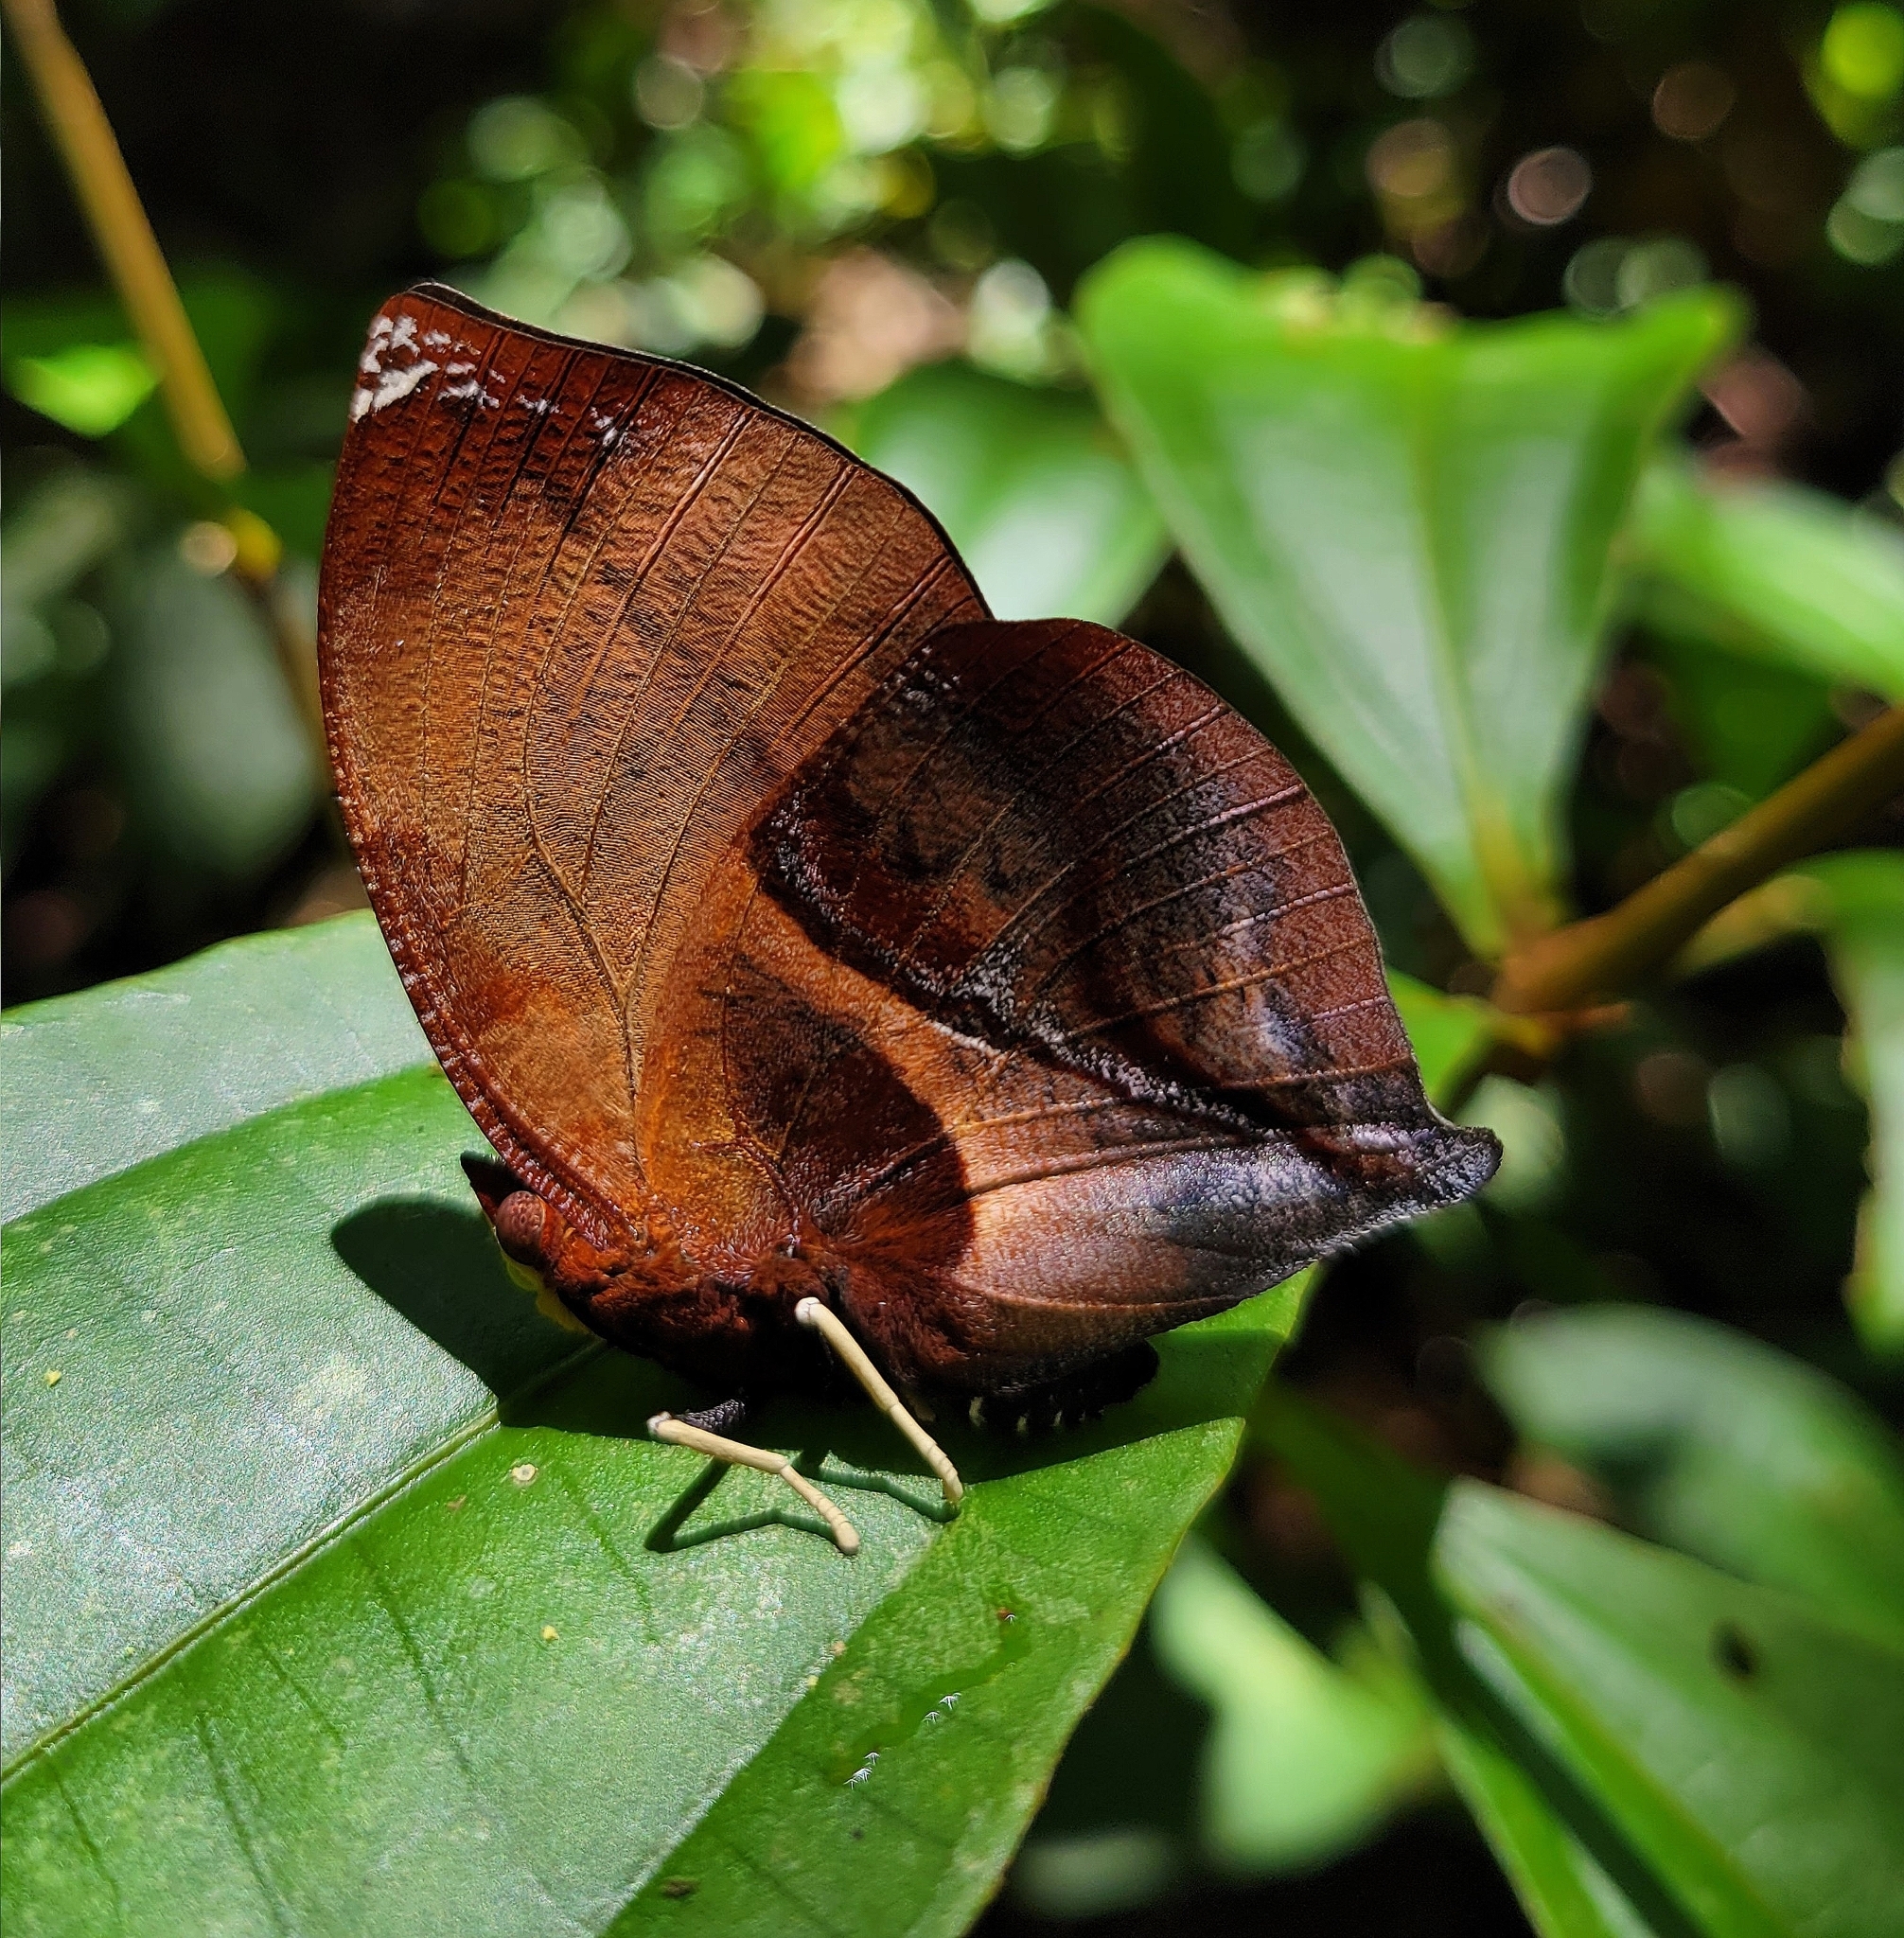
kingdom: Animalia
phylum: Arthropoda
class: Insecta
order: Lepidoptera
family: Nymphalidae
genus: Siderone
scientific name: Siderone galanthis
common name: Red-striped leafwing
